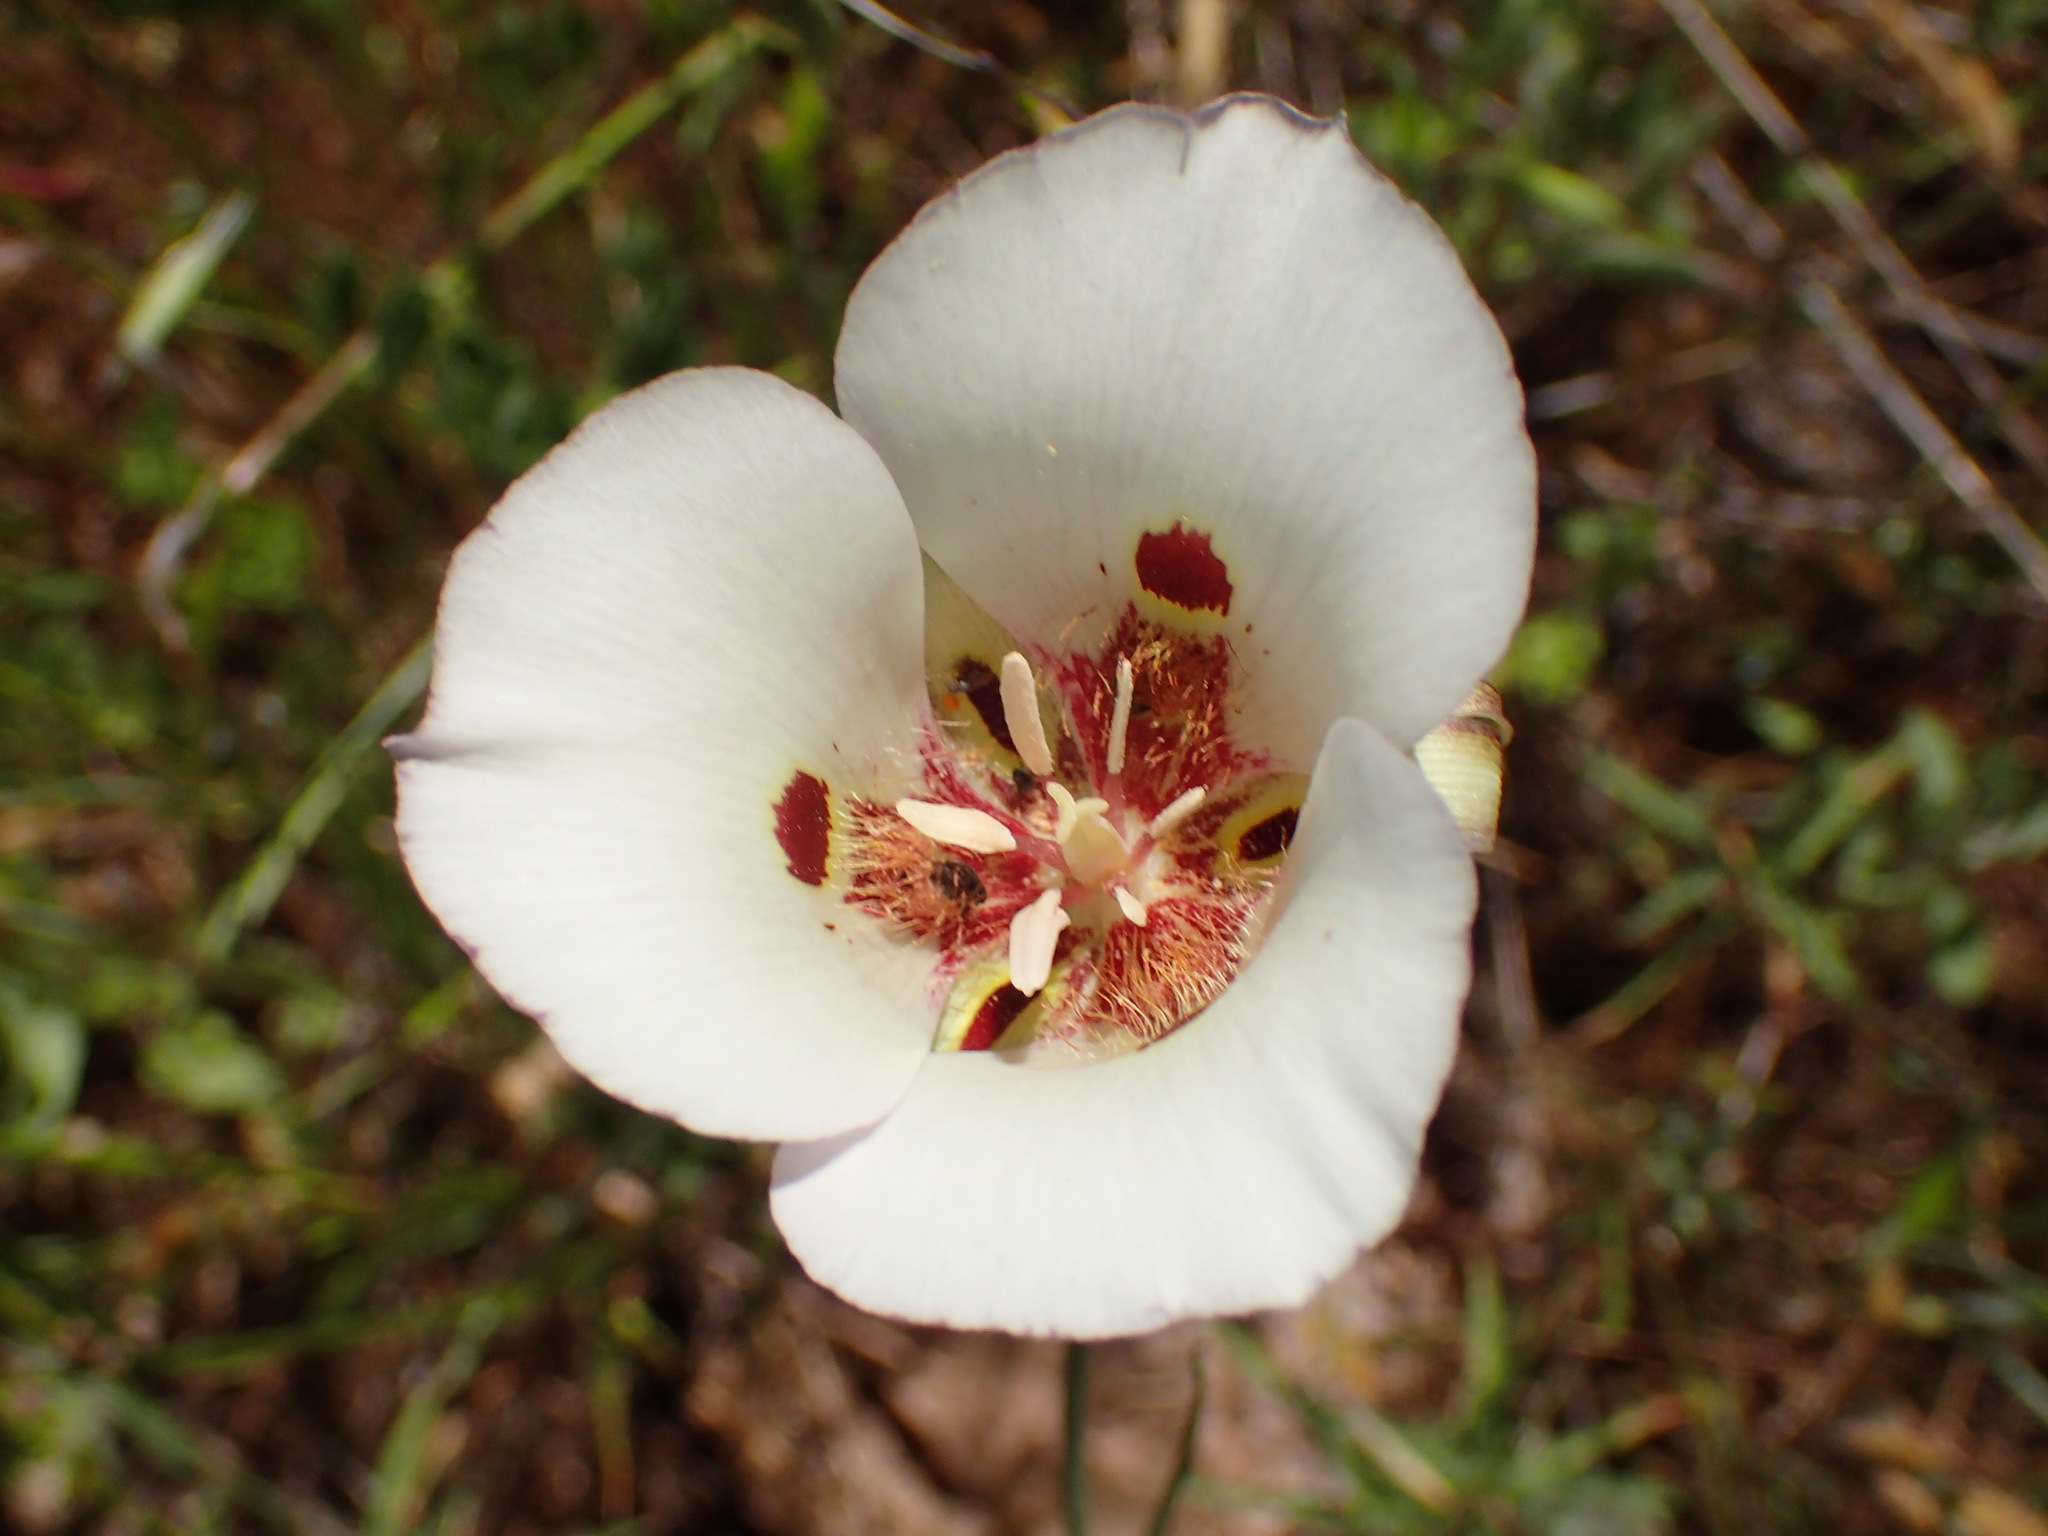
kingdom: Plantae
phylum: Tracheophyta
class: Liliopsida
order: Liliales
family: Liliaceae
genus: Calochortus
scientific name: Calochortus venustus
